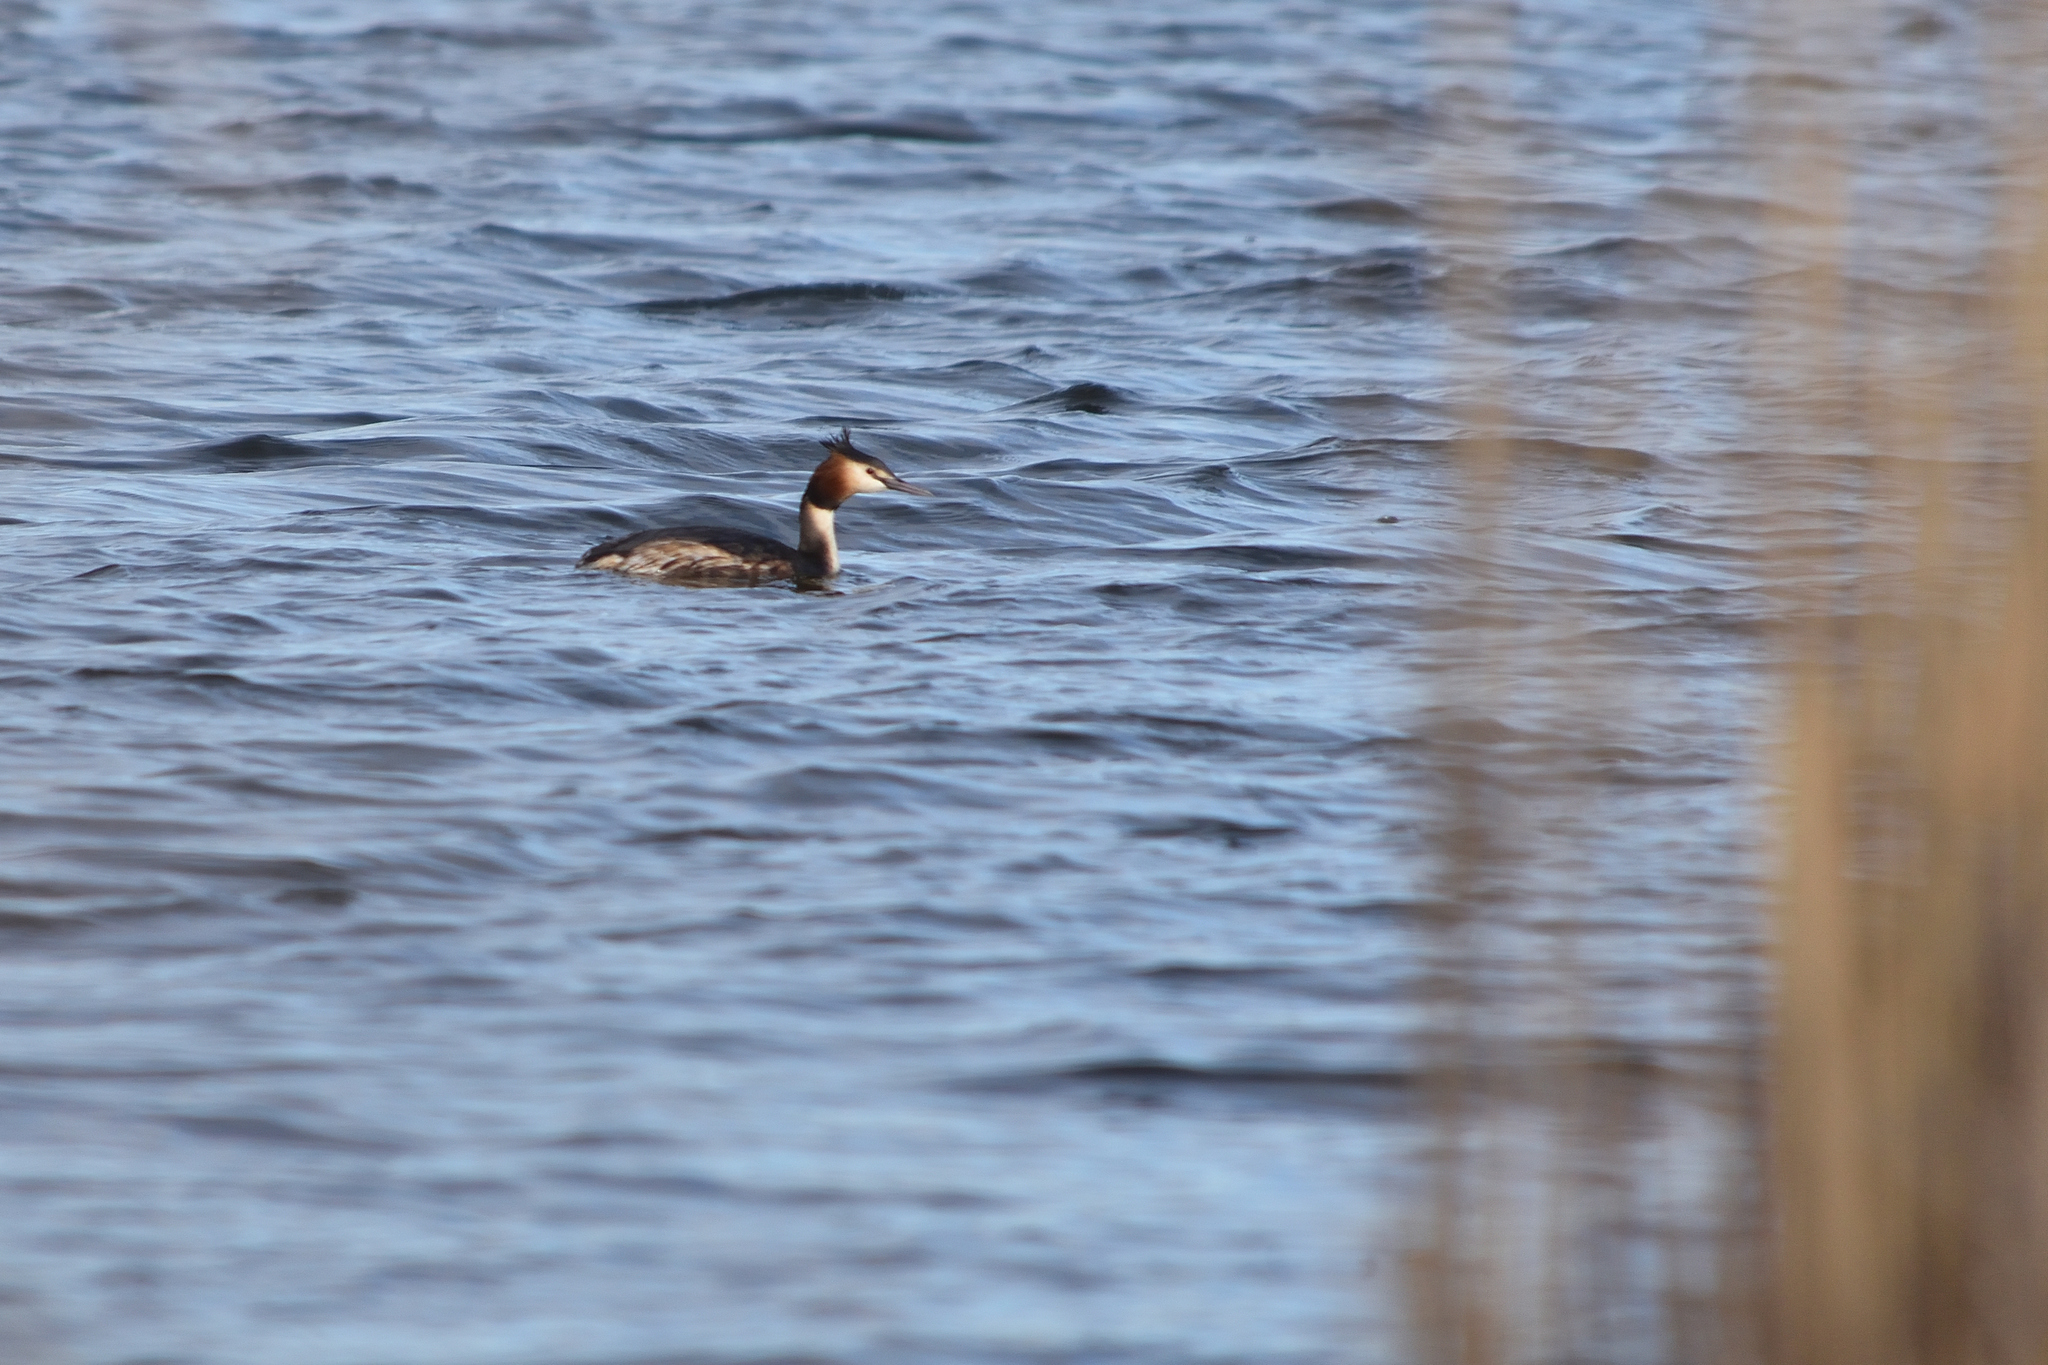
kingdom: Animalia
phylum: Chordata
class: Aves
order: Podicipediformes
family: Podicipedidae
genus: Podiceps
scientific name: Podiceps cristatus
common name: Great crested grebe
